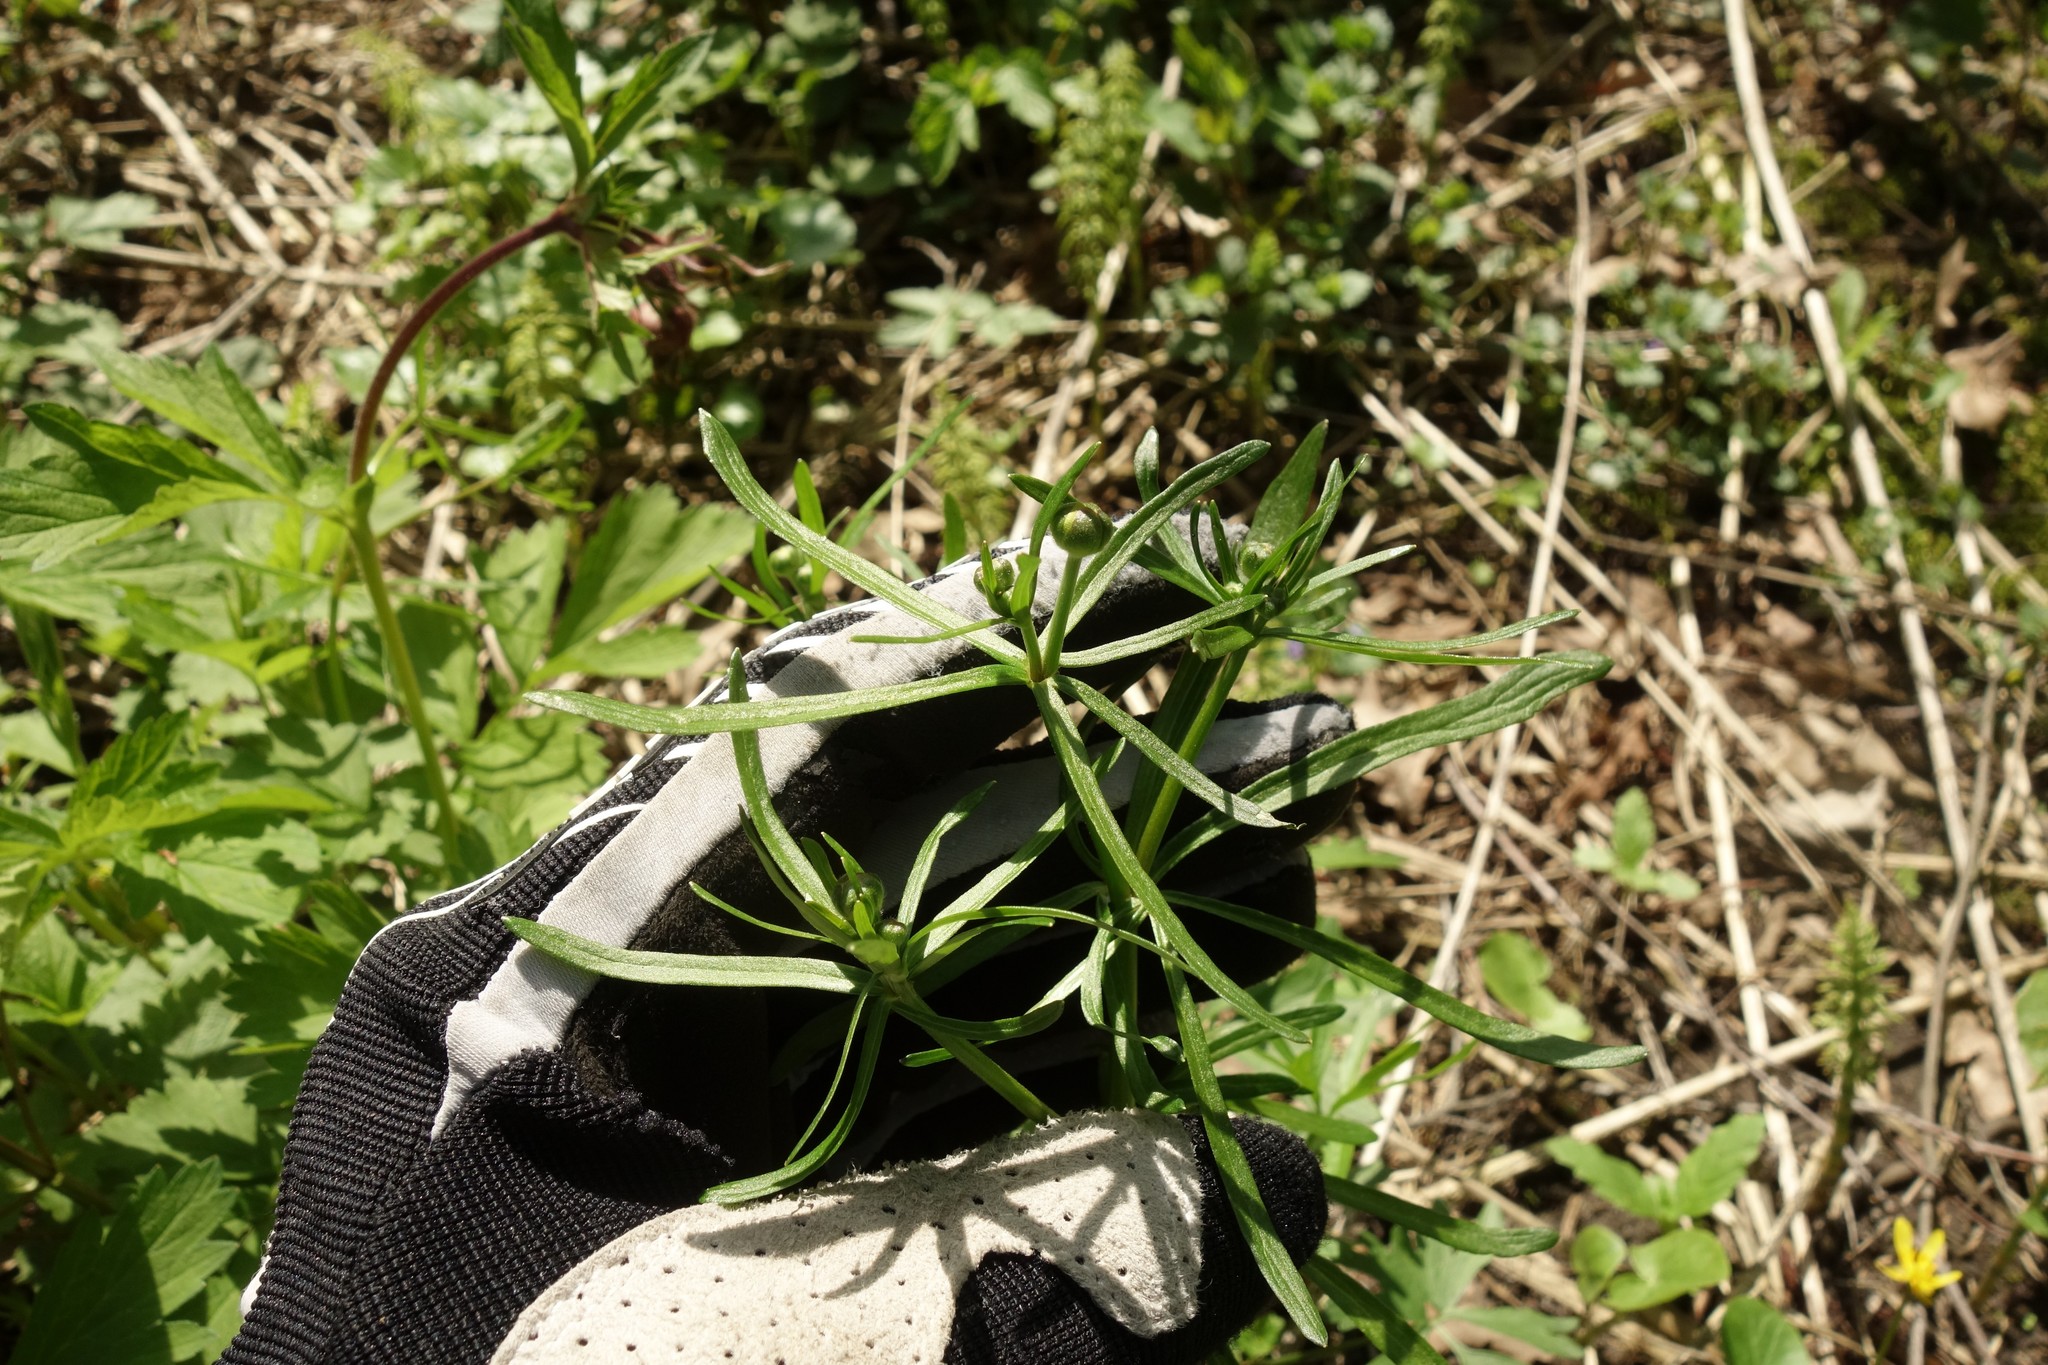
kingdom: Plantae
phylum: Tracheophyta
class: Magnoliopsida
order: Ranunculales
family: Ranunculaceae
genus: Ranunculus
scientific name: Ranunculus auricomus
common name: Goldilocks buttercup
